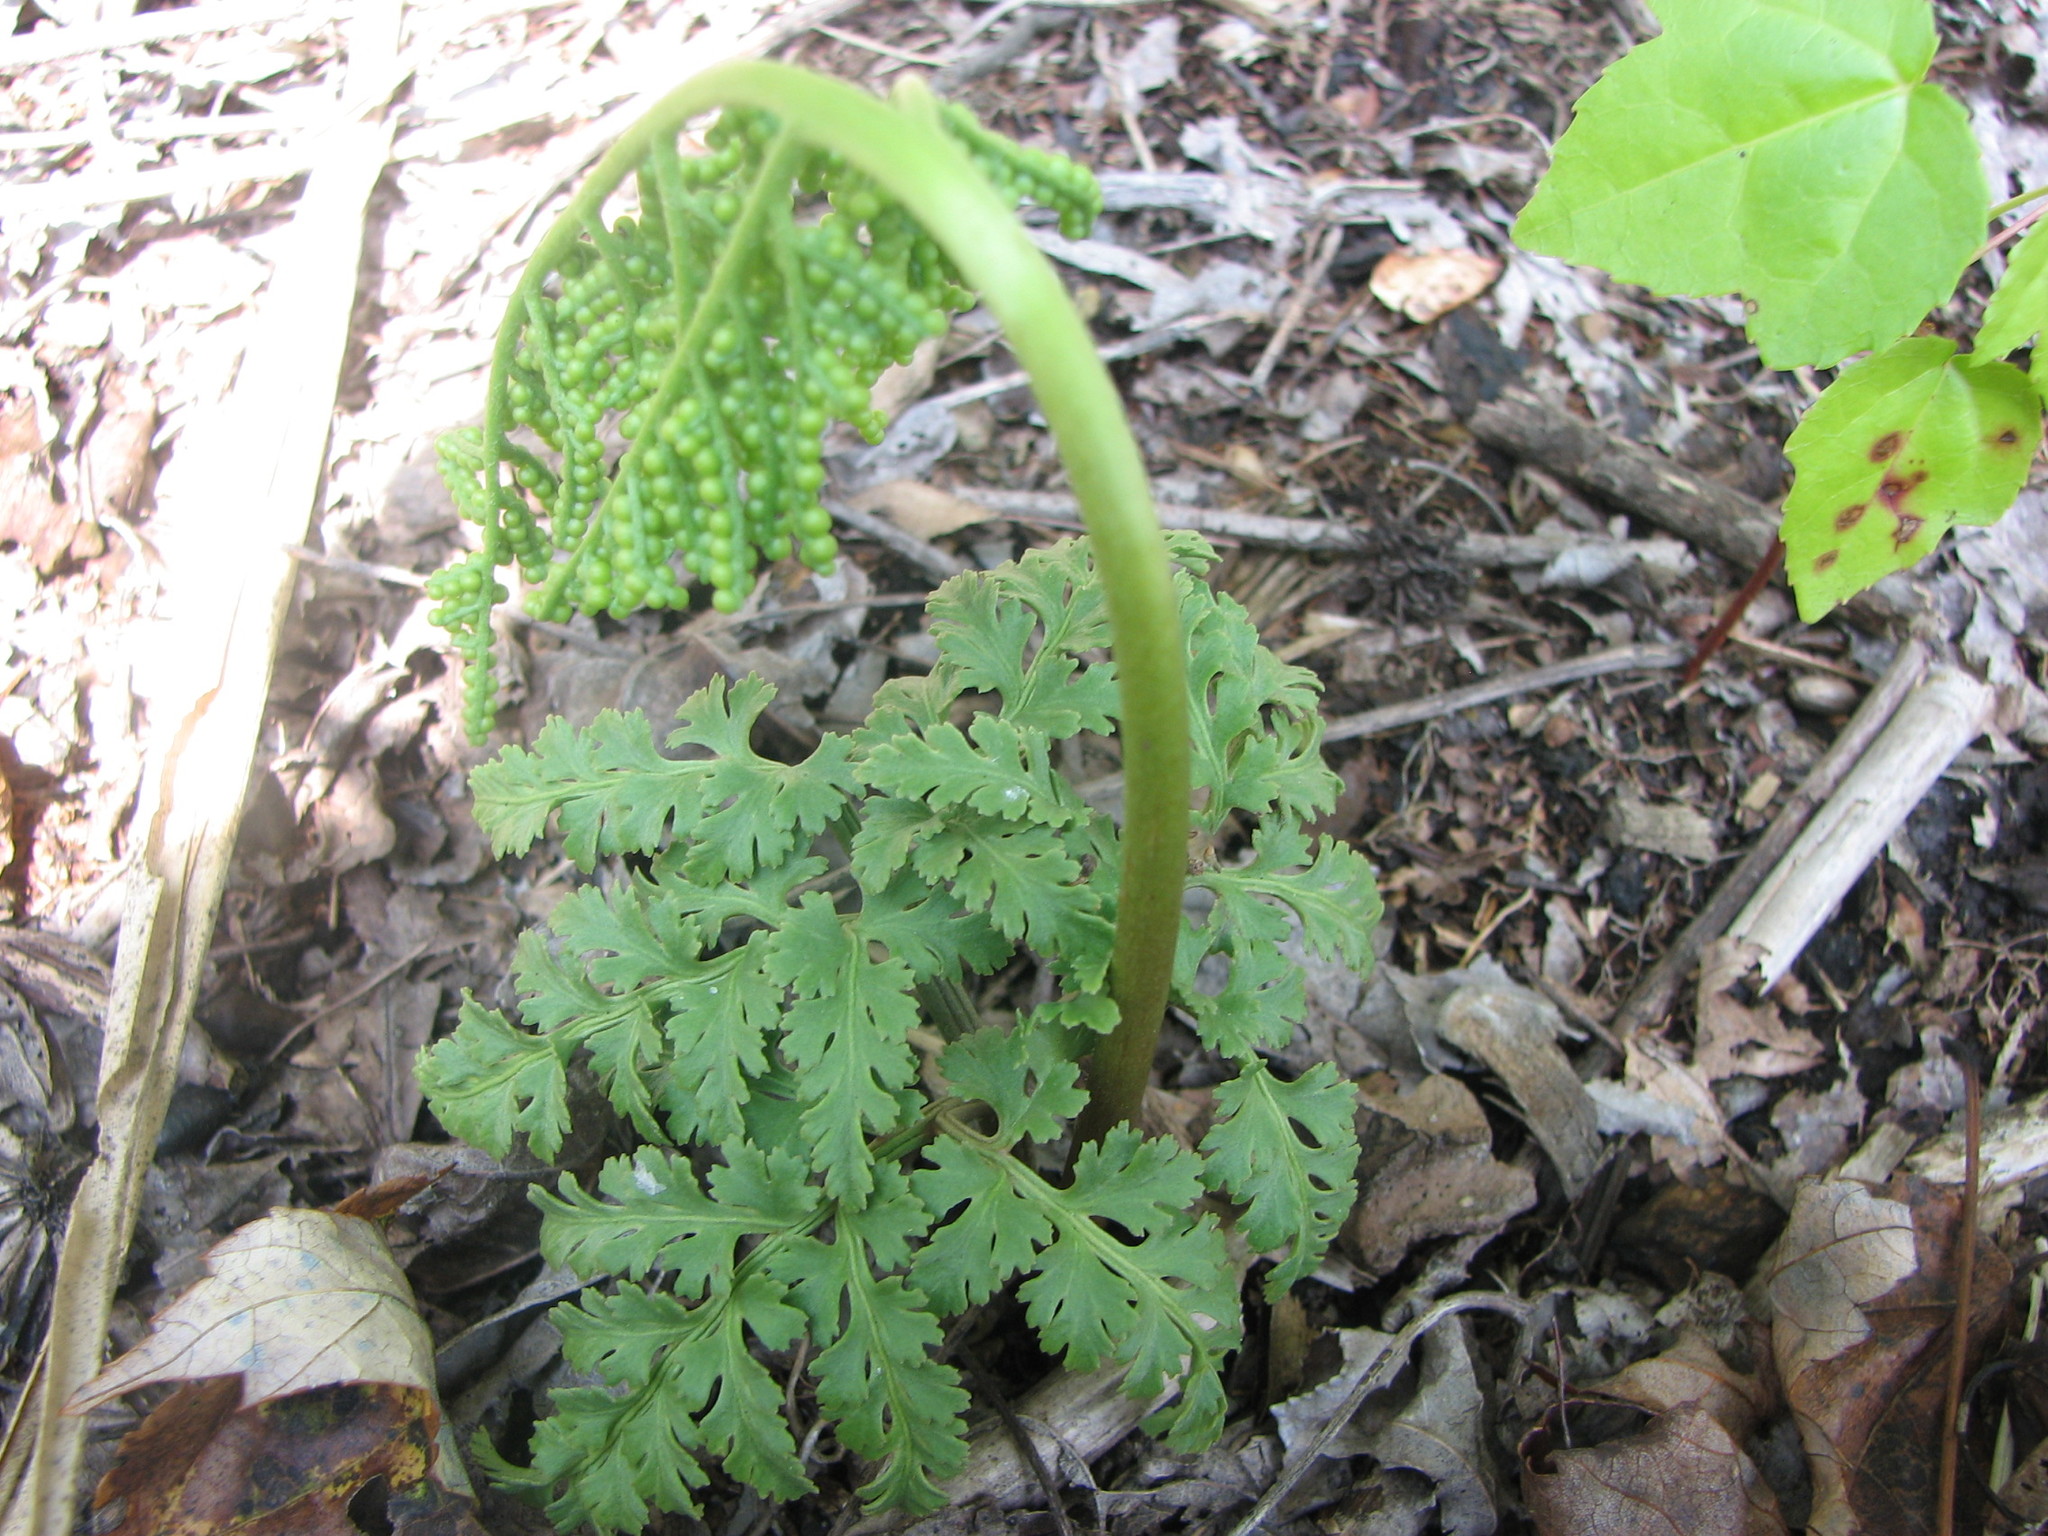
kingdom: Plantae
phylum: Tracheophyta
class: Polypodiopsida
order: Ophioglossales
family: Ophioglossaceae
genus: Sceptridium
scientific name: Sceptridium dissectum
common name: Cut-leaved grapefern
